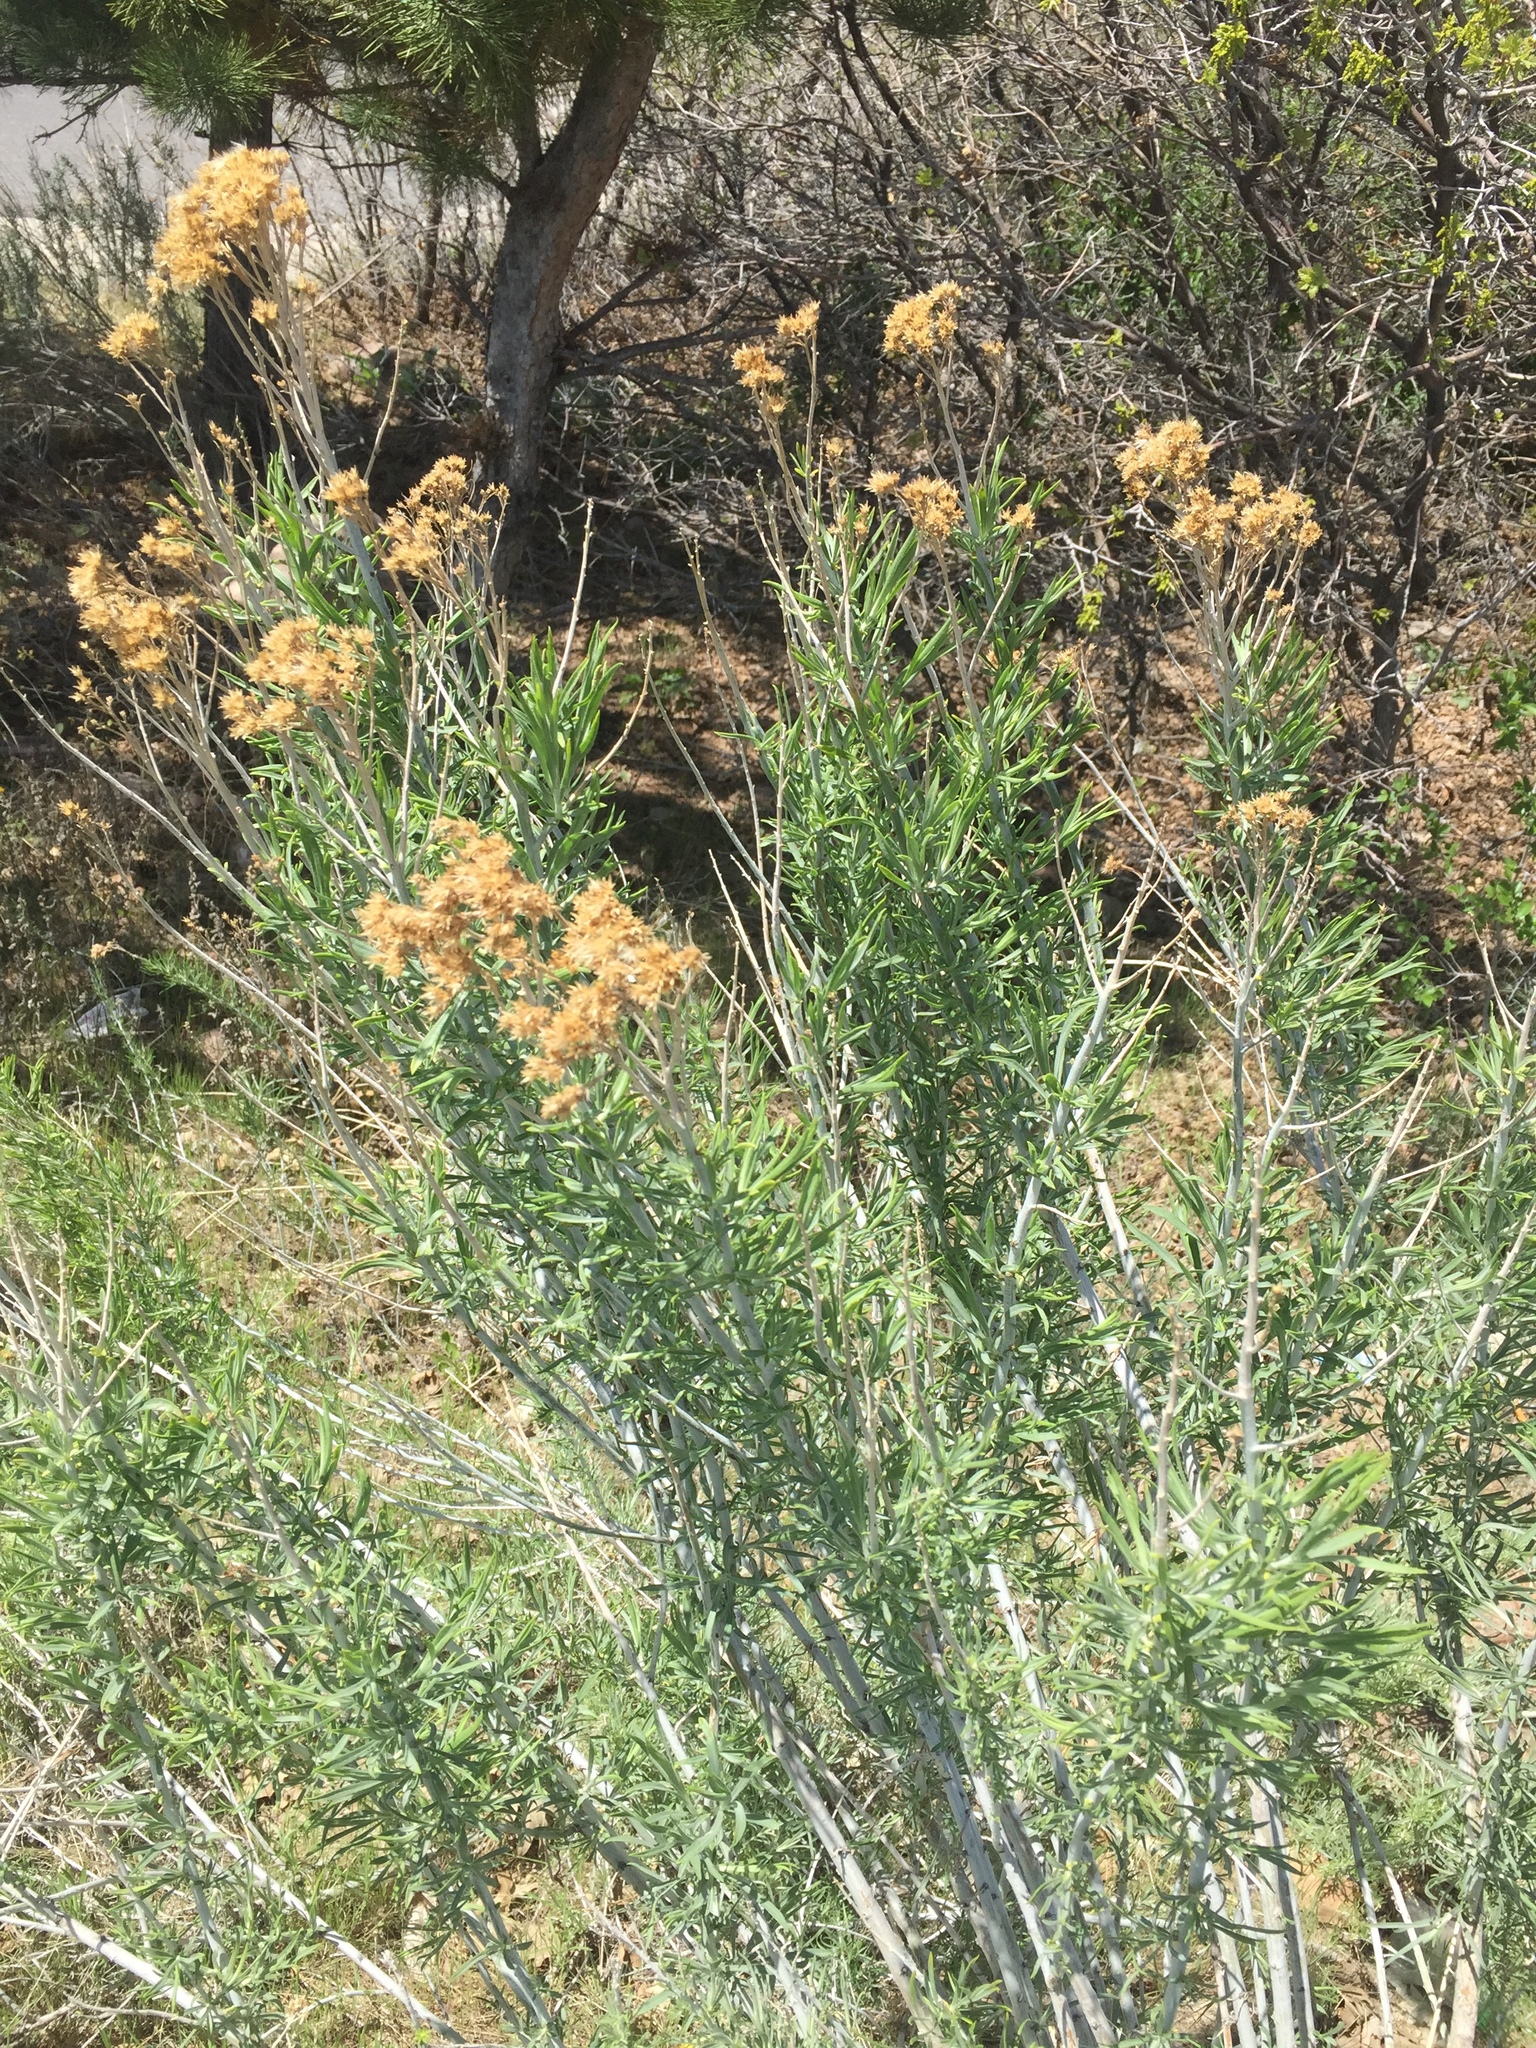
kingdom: Plantae
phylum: Tracheophyta
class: Magnoliopsida
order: Asterales
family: Asteraceae
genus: Ericameria
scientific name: Ericameria nauseosa
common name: Rubber rabbitbrush
